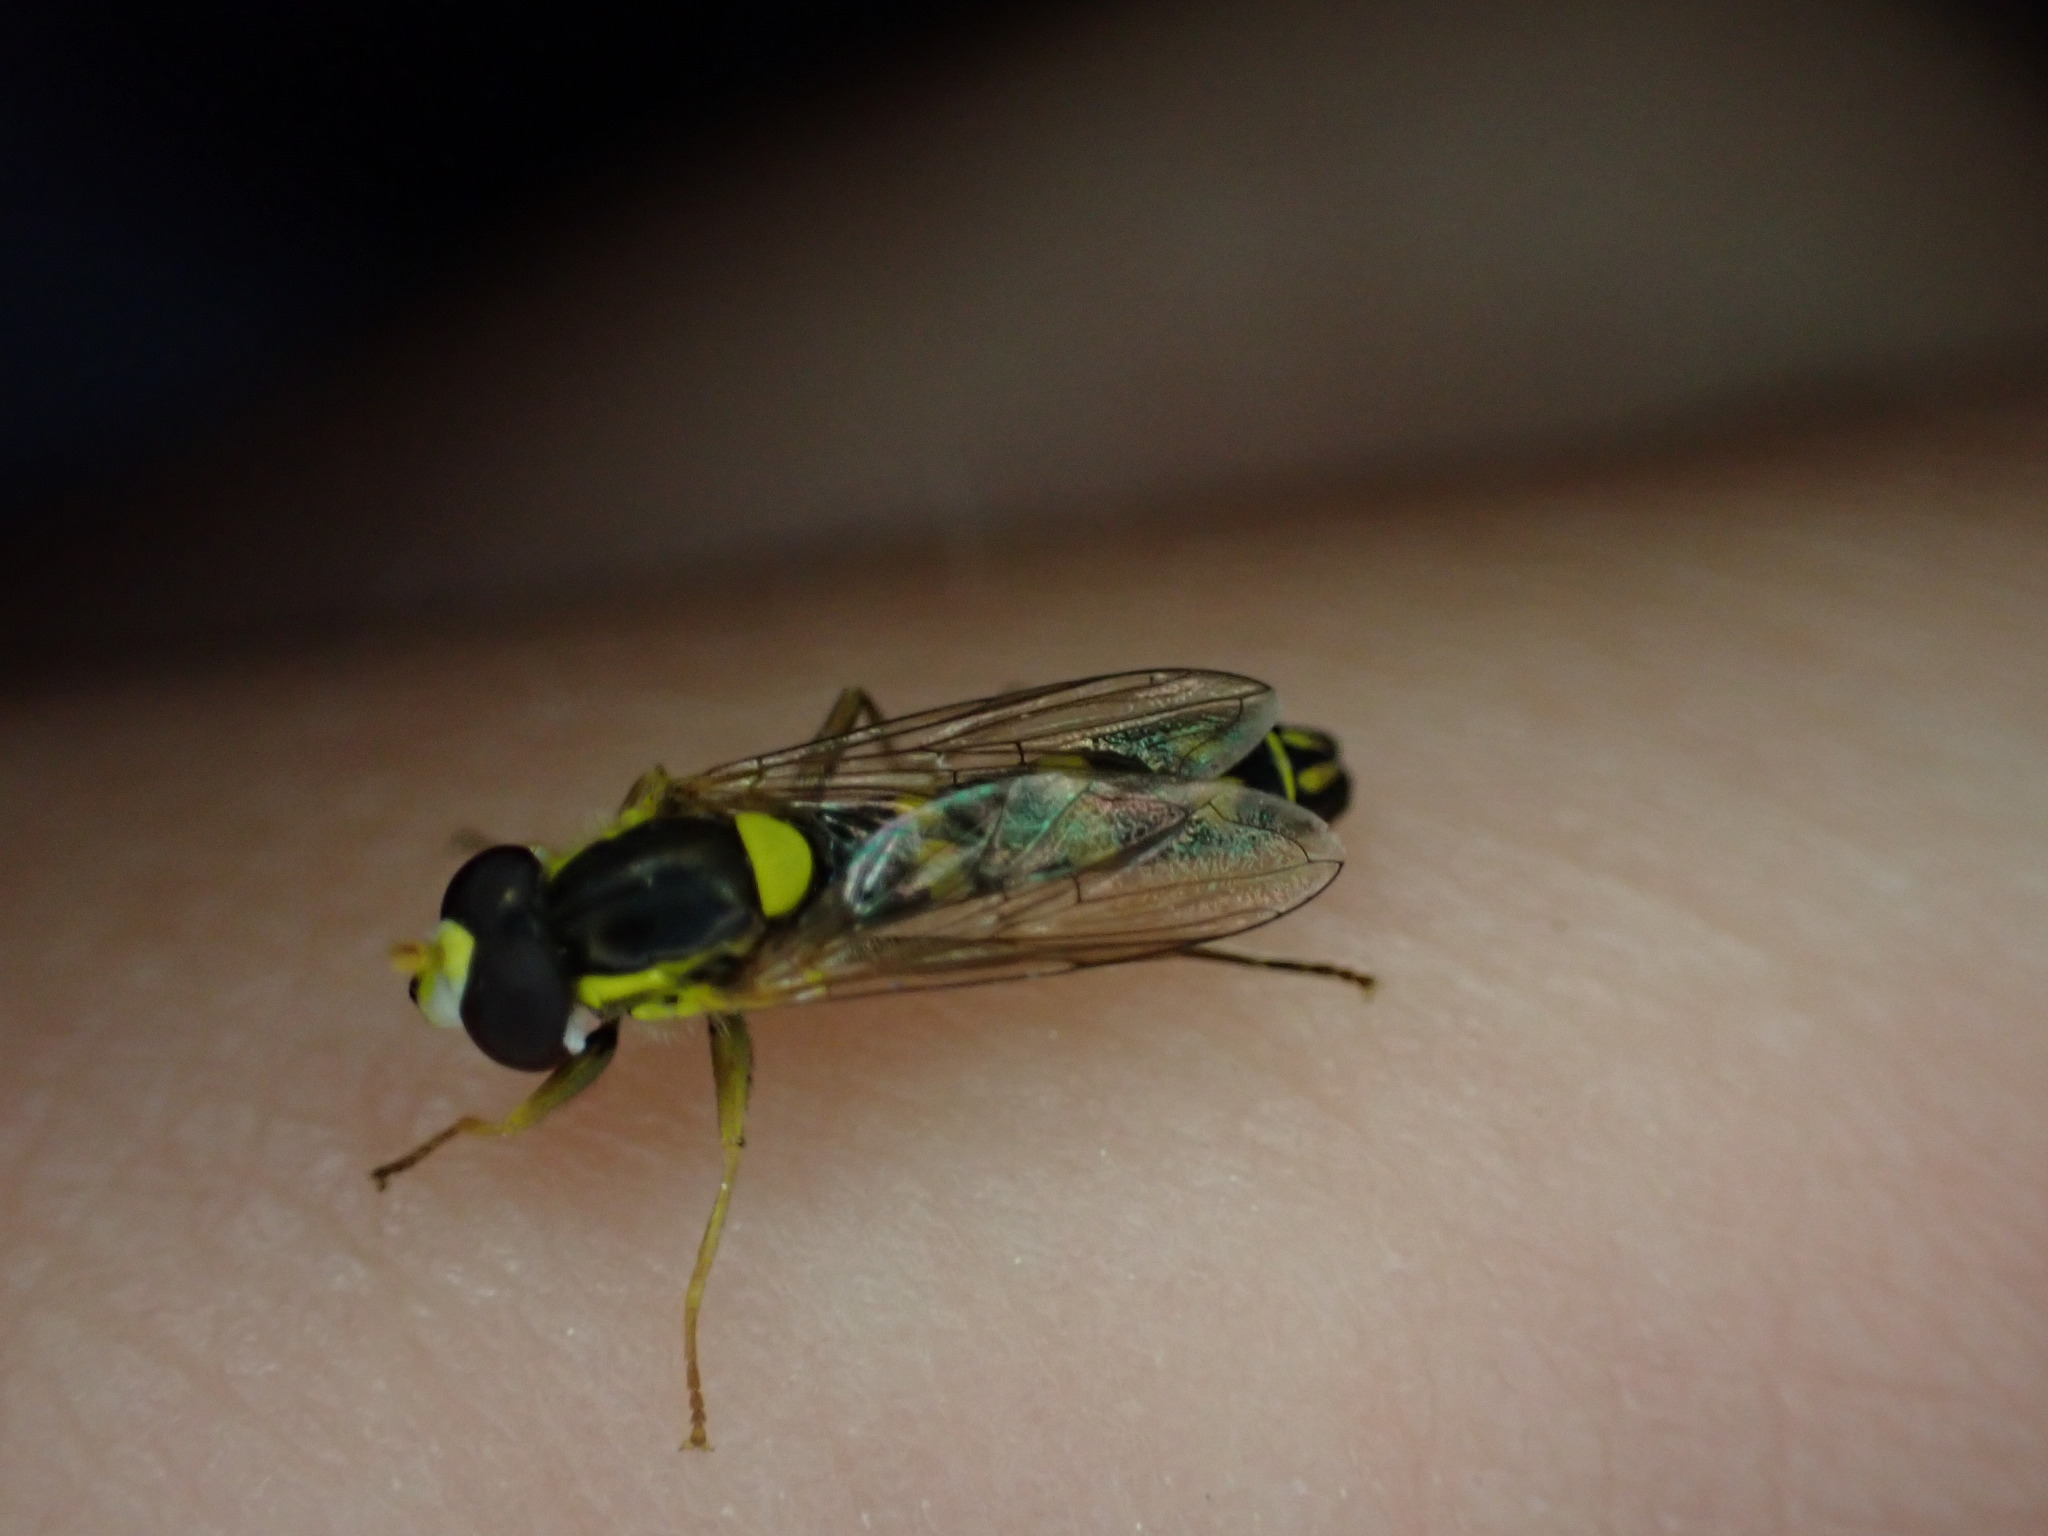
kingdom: Animalia
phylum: Arthropoda
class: Insecta
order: Diptera
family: Syrphidae
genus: Sphaerophoria
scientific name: Sphaerophoria scripta
